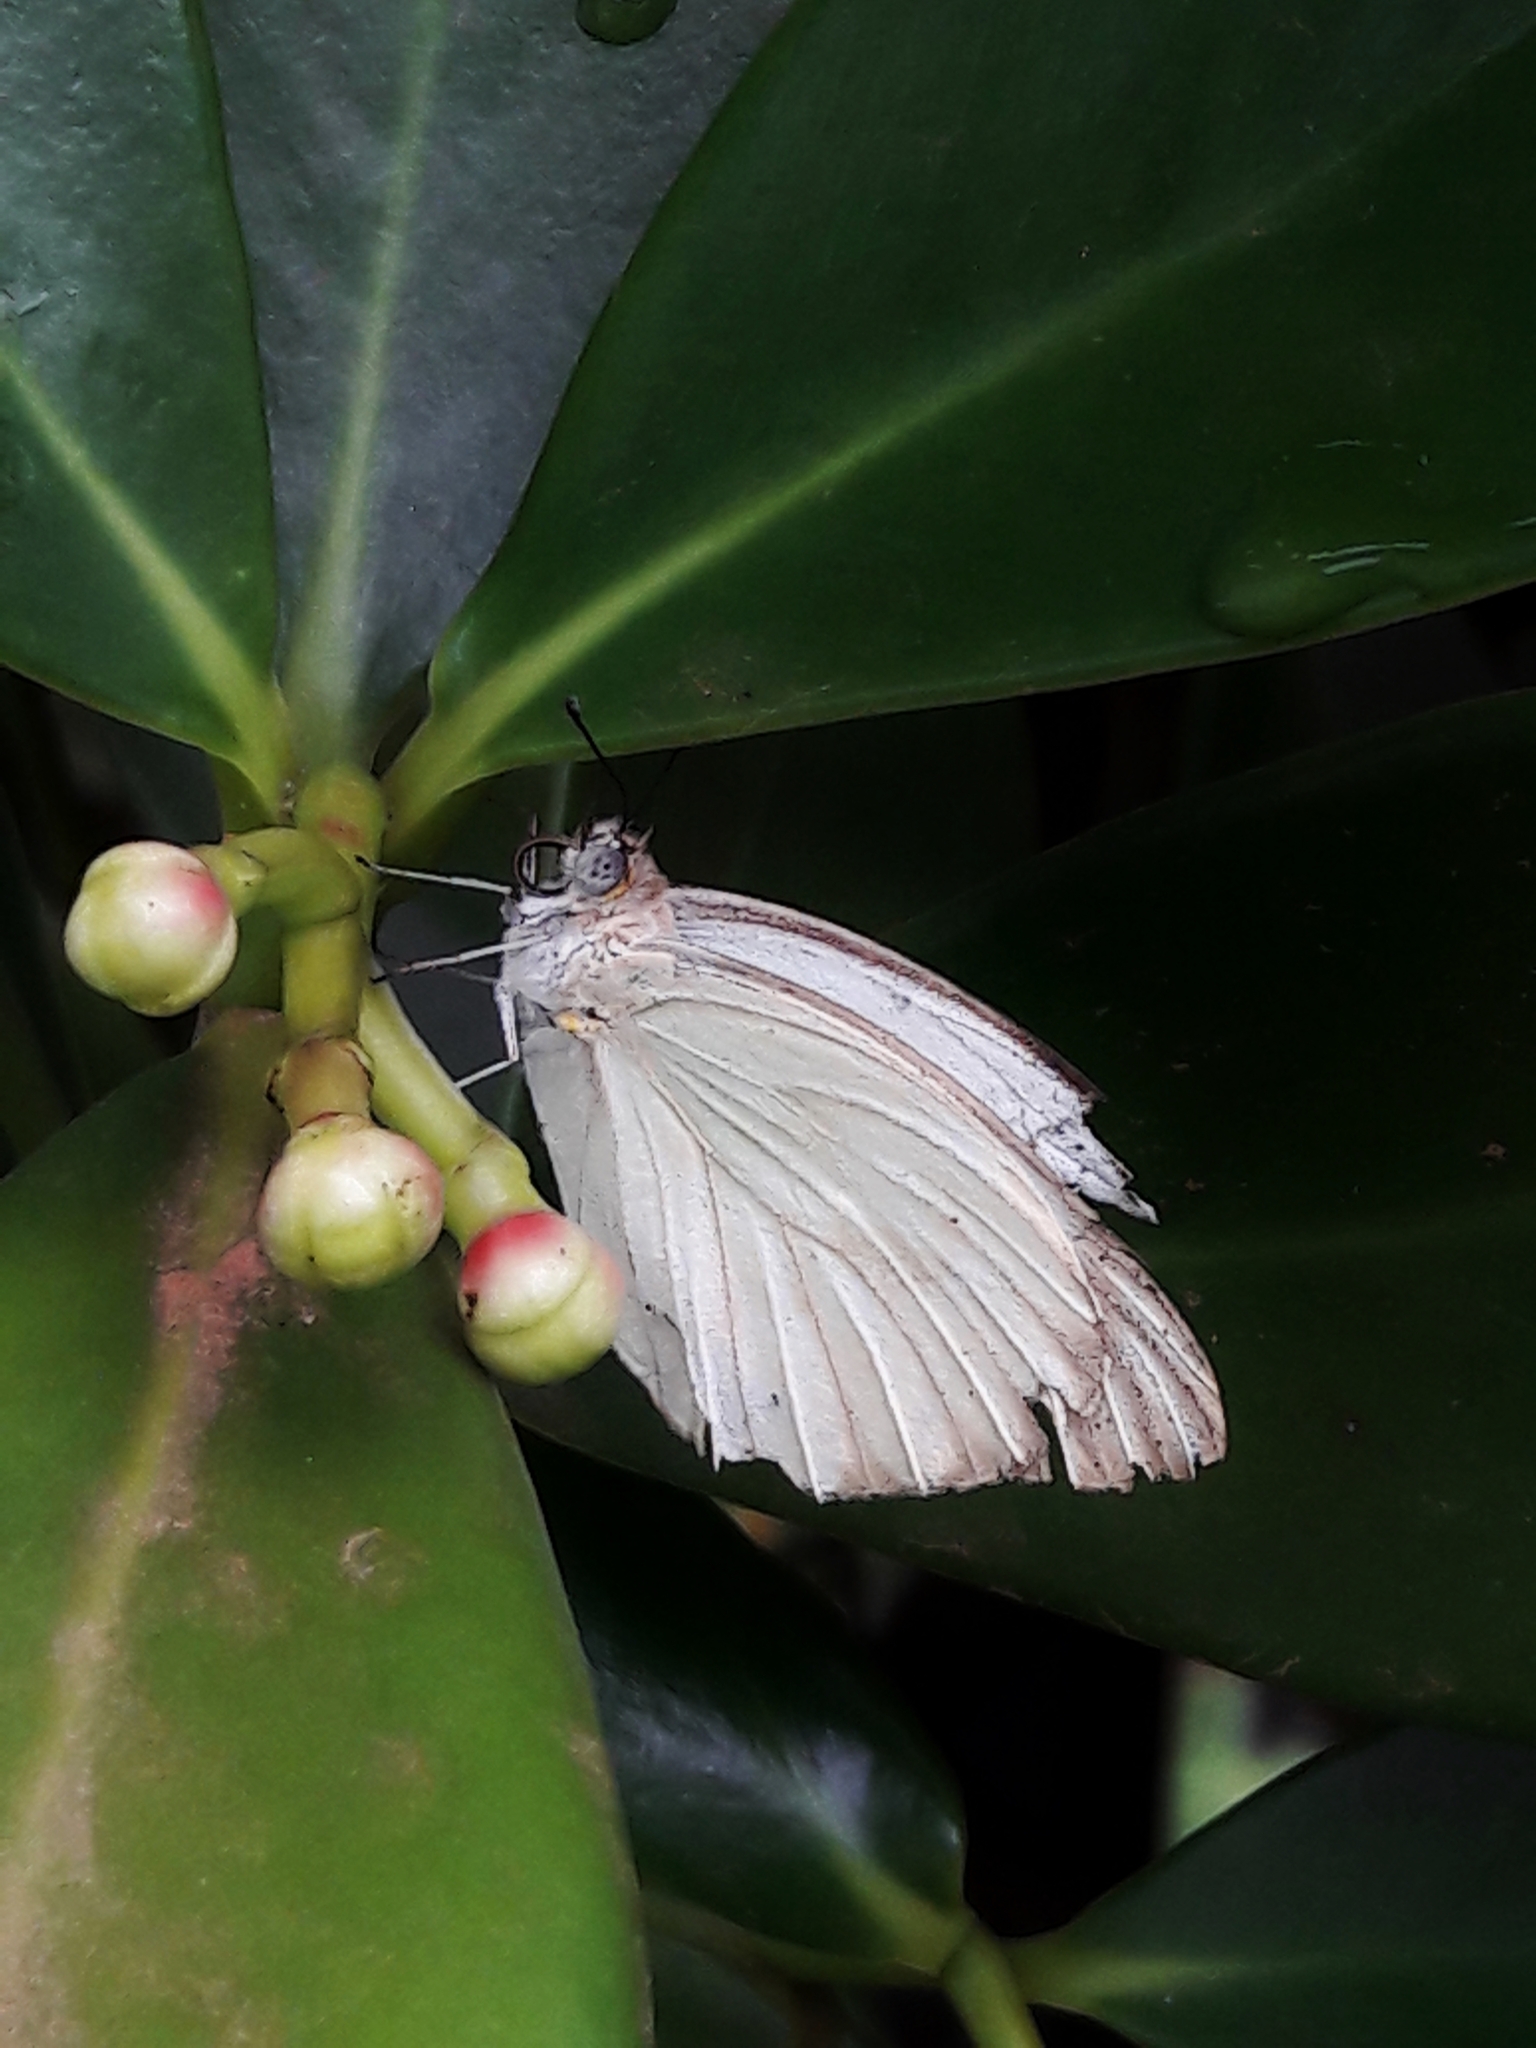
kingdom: Animalia
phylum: Arthropoda
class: Insecta
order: Lepidoptera
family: Pieridae
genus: Ascia
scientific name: Ascia monuste
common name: Great southern white
